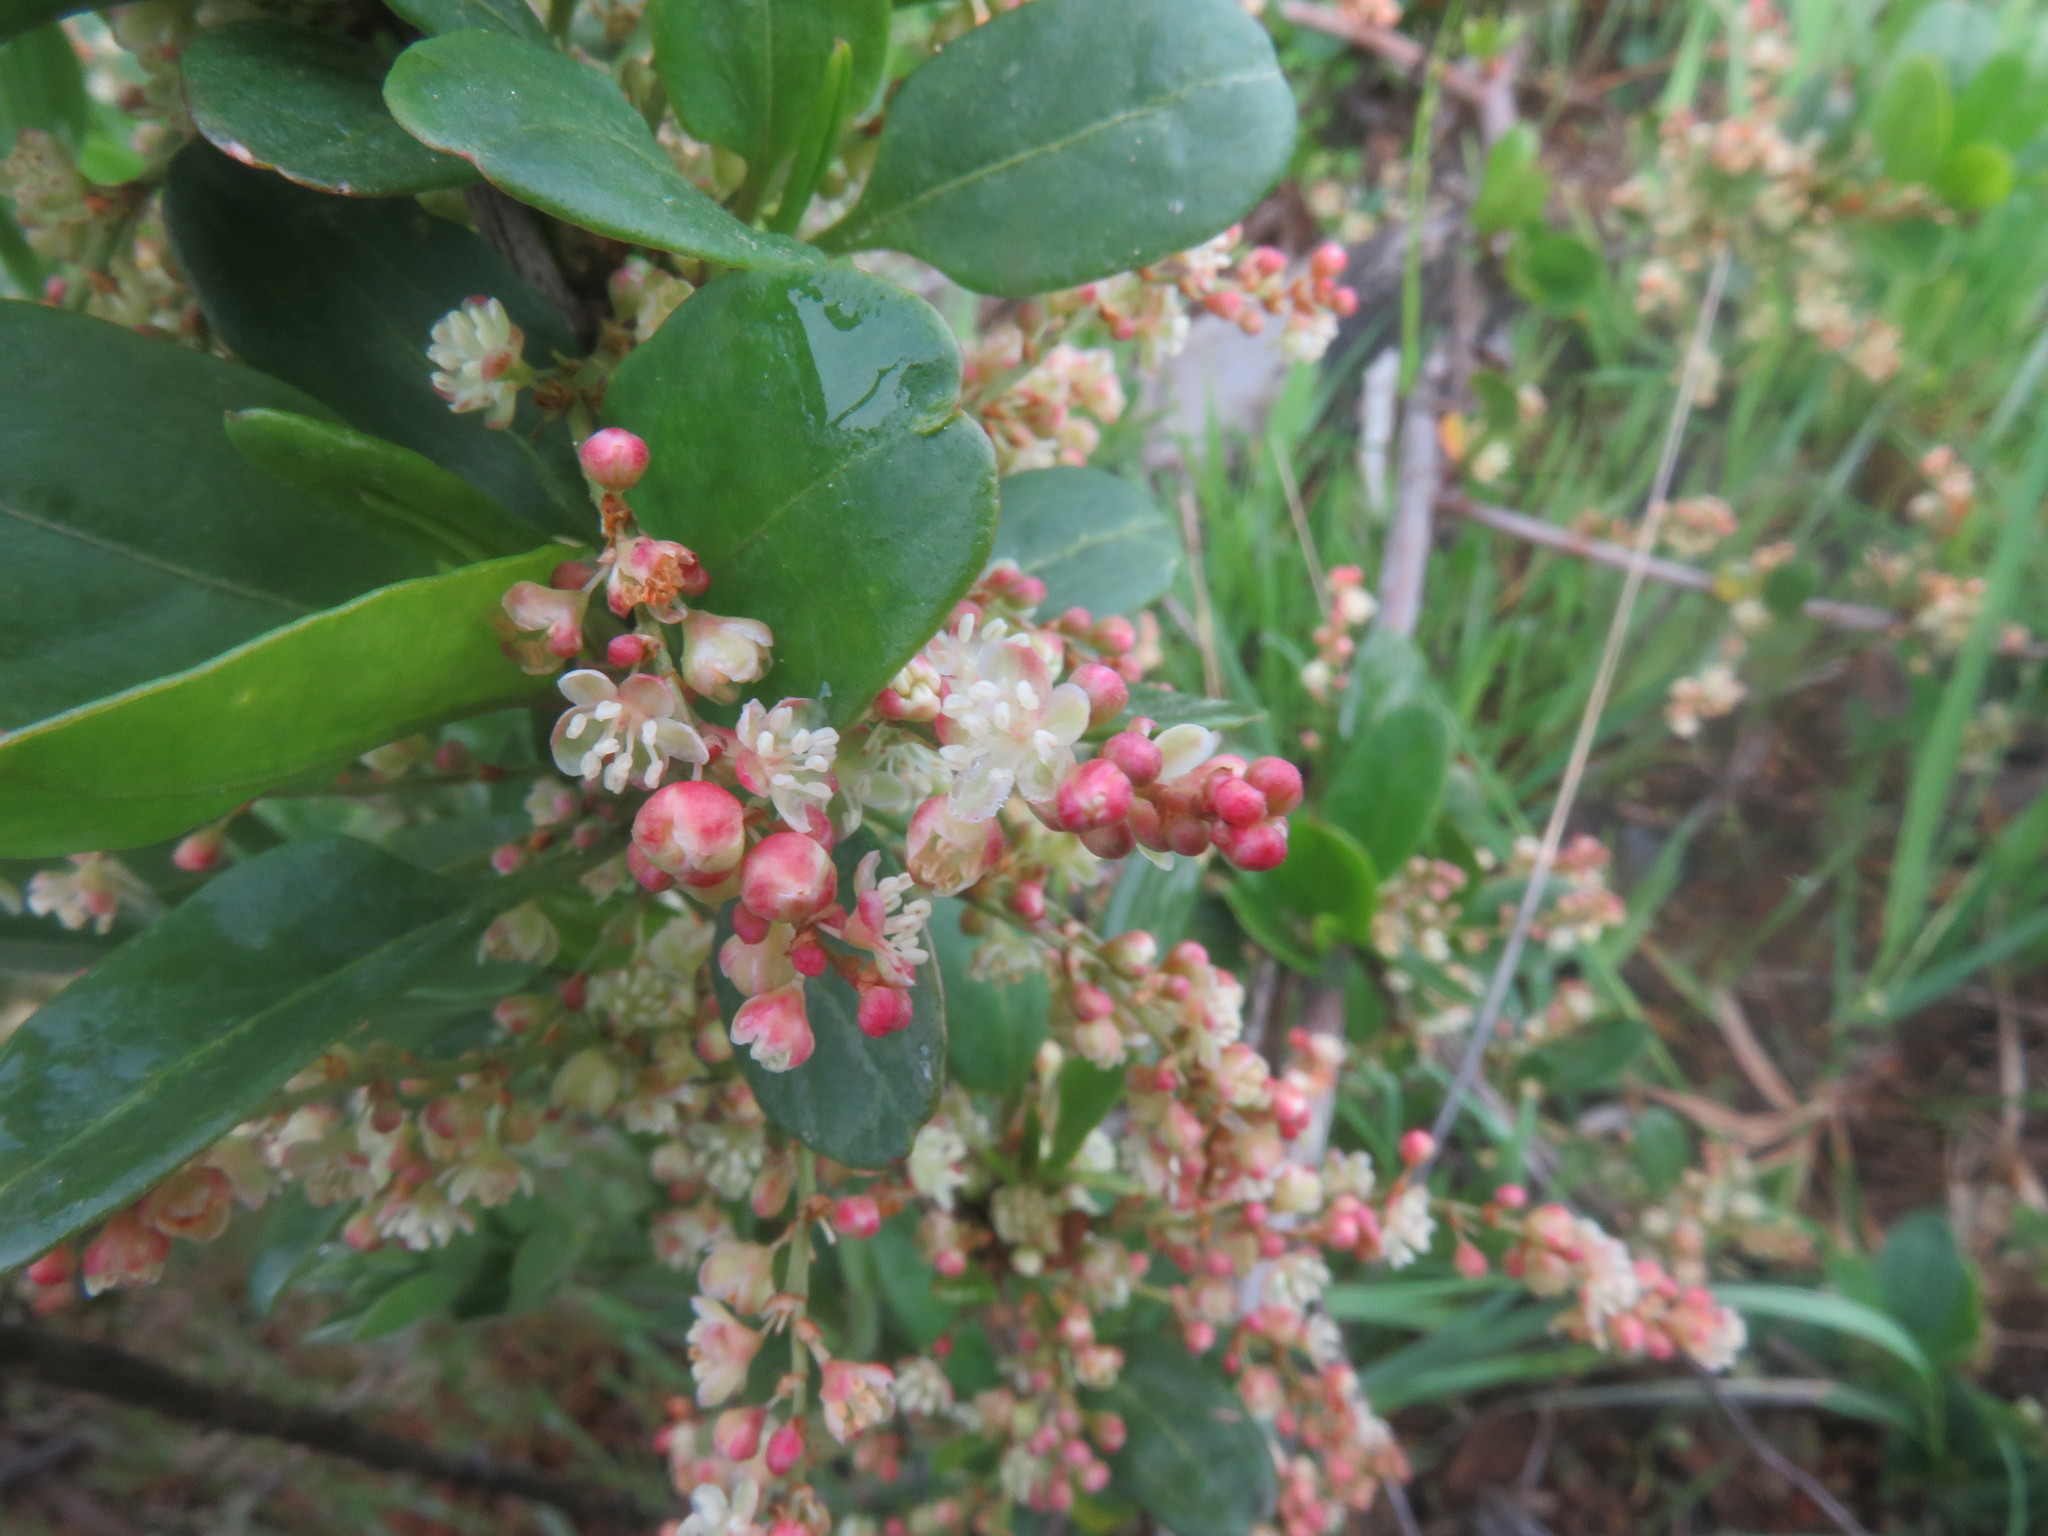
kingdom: Plantae
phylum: Tracheophyta
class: Magnoliopsida
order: Caryophyllales
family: Polygonaceae
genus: Muehlenbeckia
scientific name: Muehlenbeckia hastulata
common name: Wirevine
